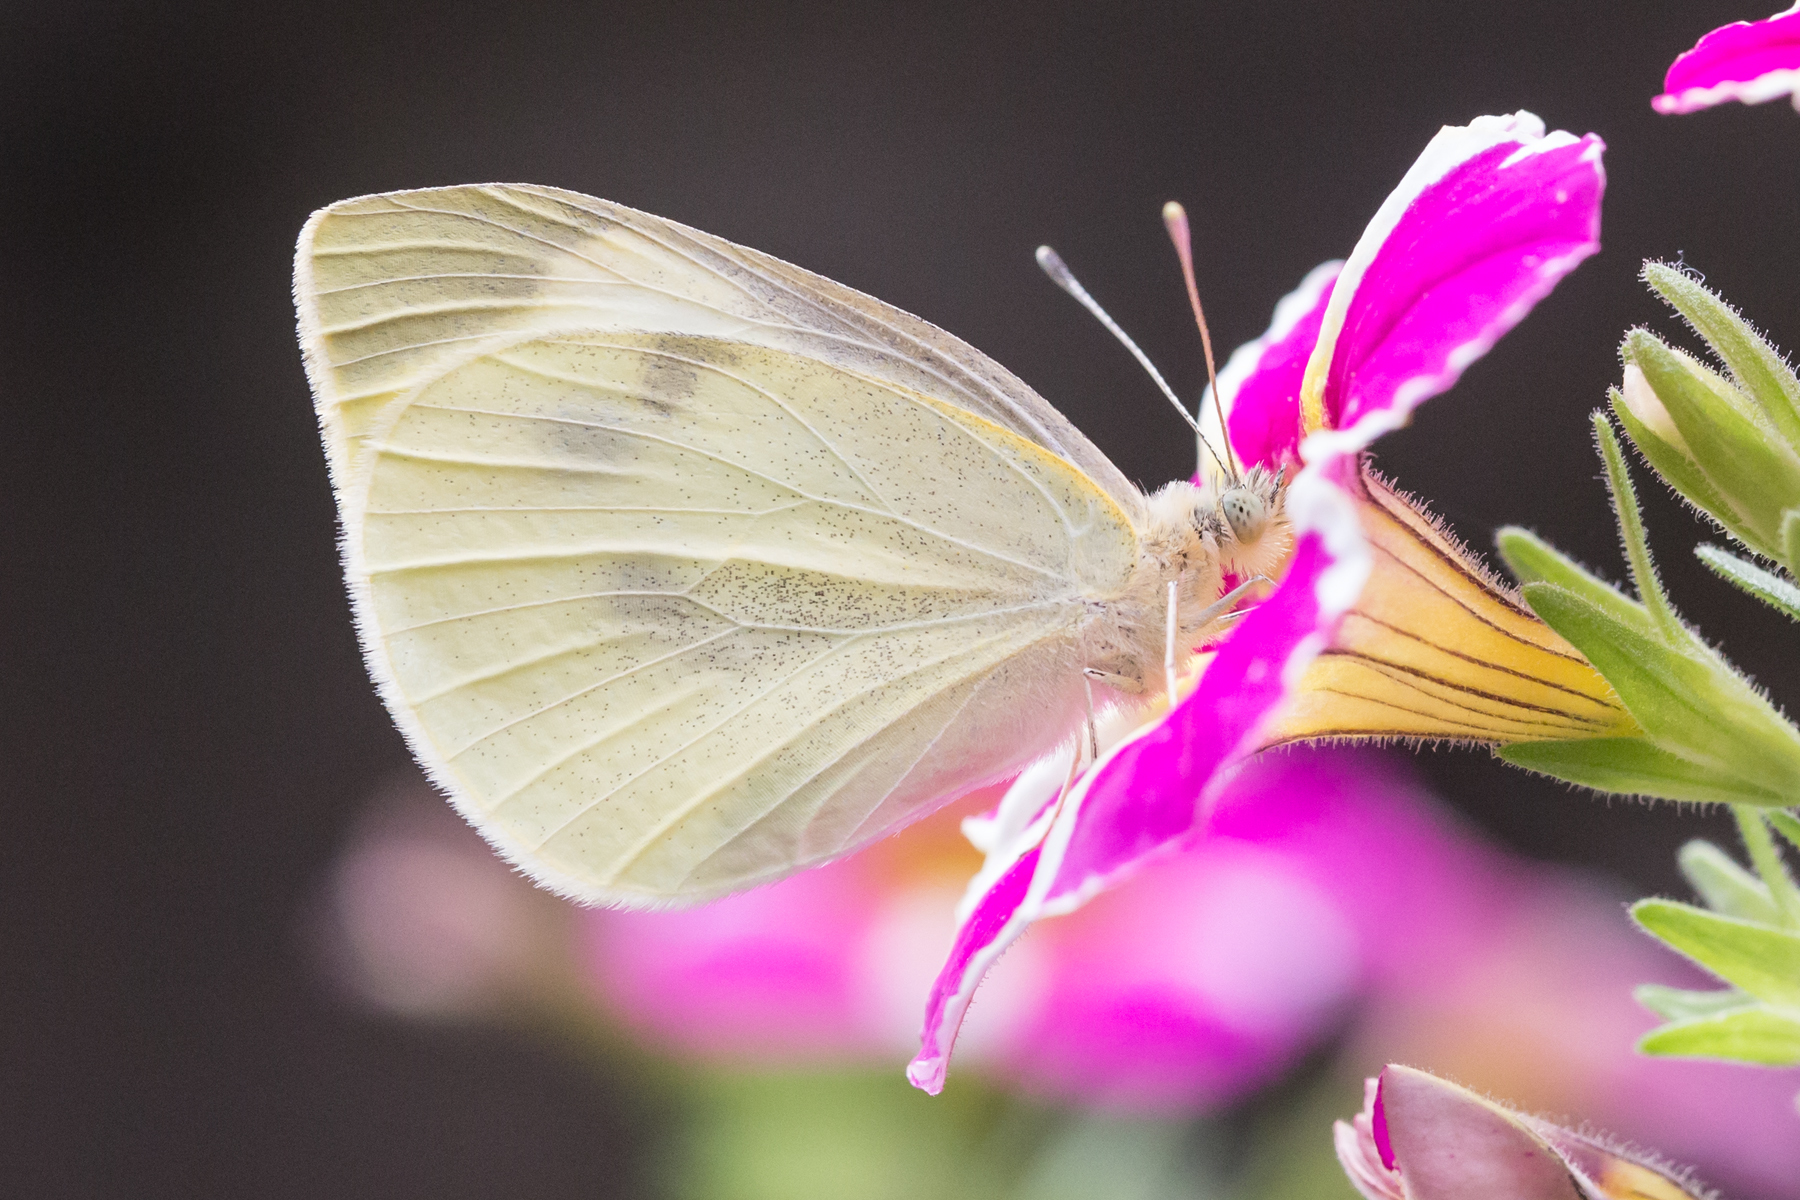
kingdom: Animalia
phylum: Arthropoda
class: Insecta
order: Lepidoptera
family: Pieridae
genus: Pieris
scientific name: Pieris rapae
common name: Small white
